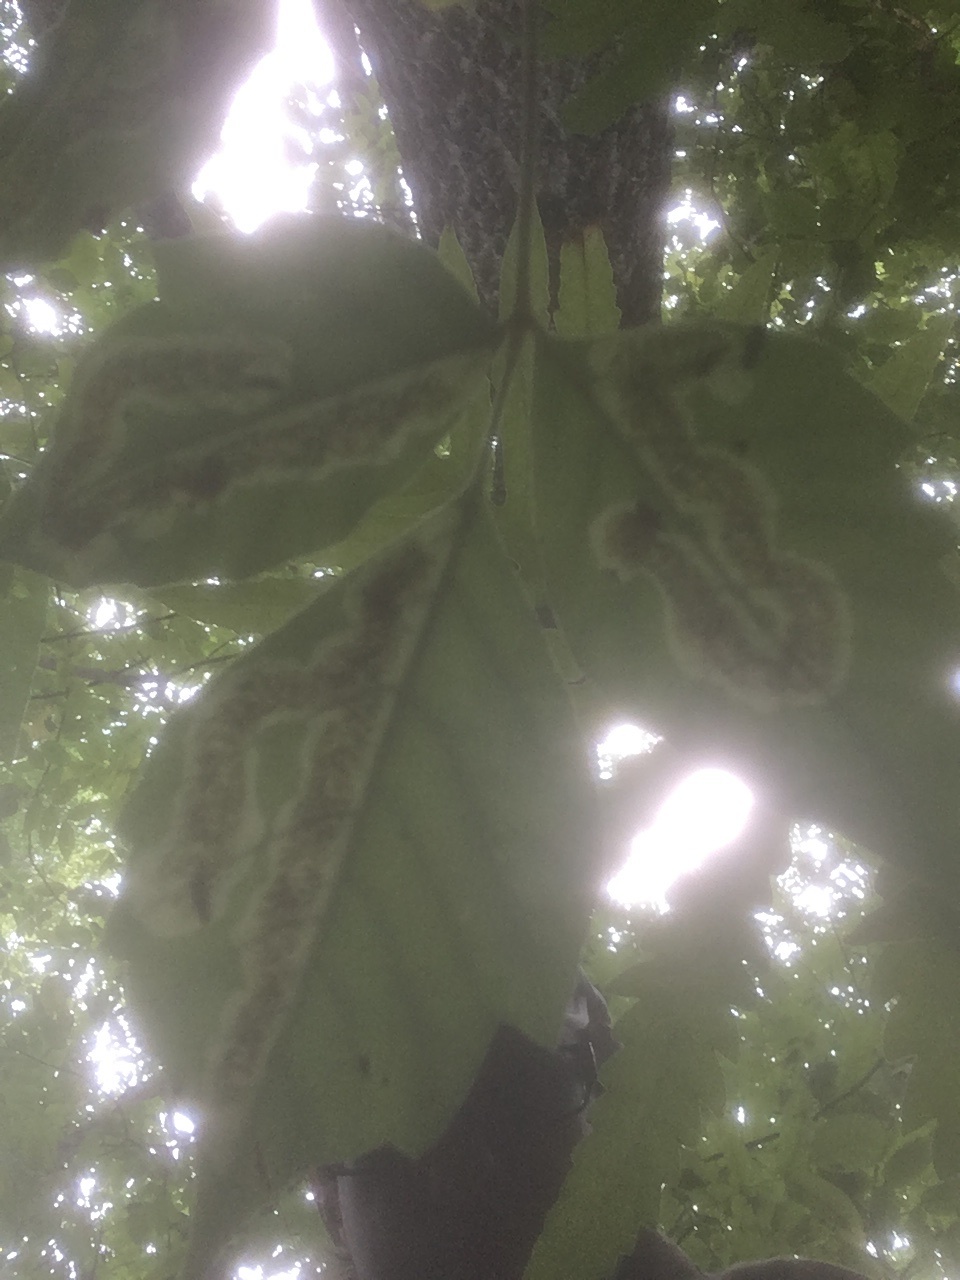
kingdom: Animalia
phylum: Arthropoda
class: Insecta
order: Lepidoptera
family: Gracillariidae
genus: Cameraria
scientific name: Cameraria guttifinitella
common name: Poison ivy leaf-miner moth
